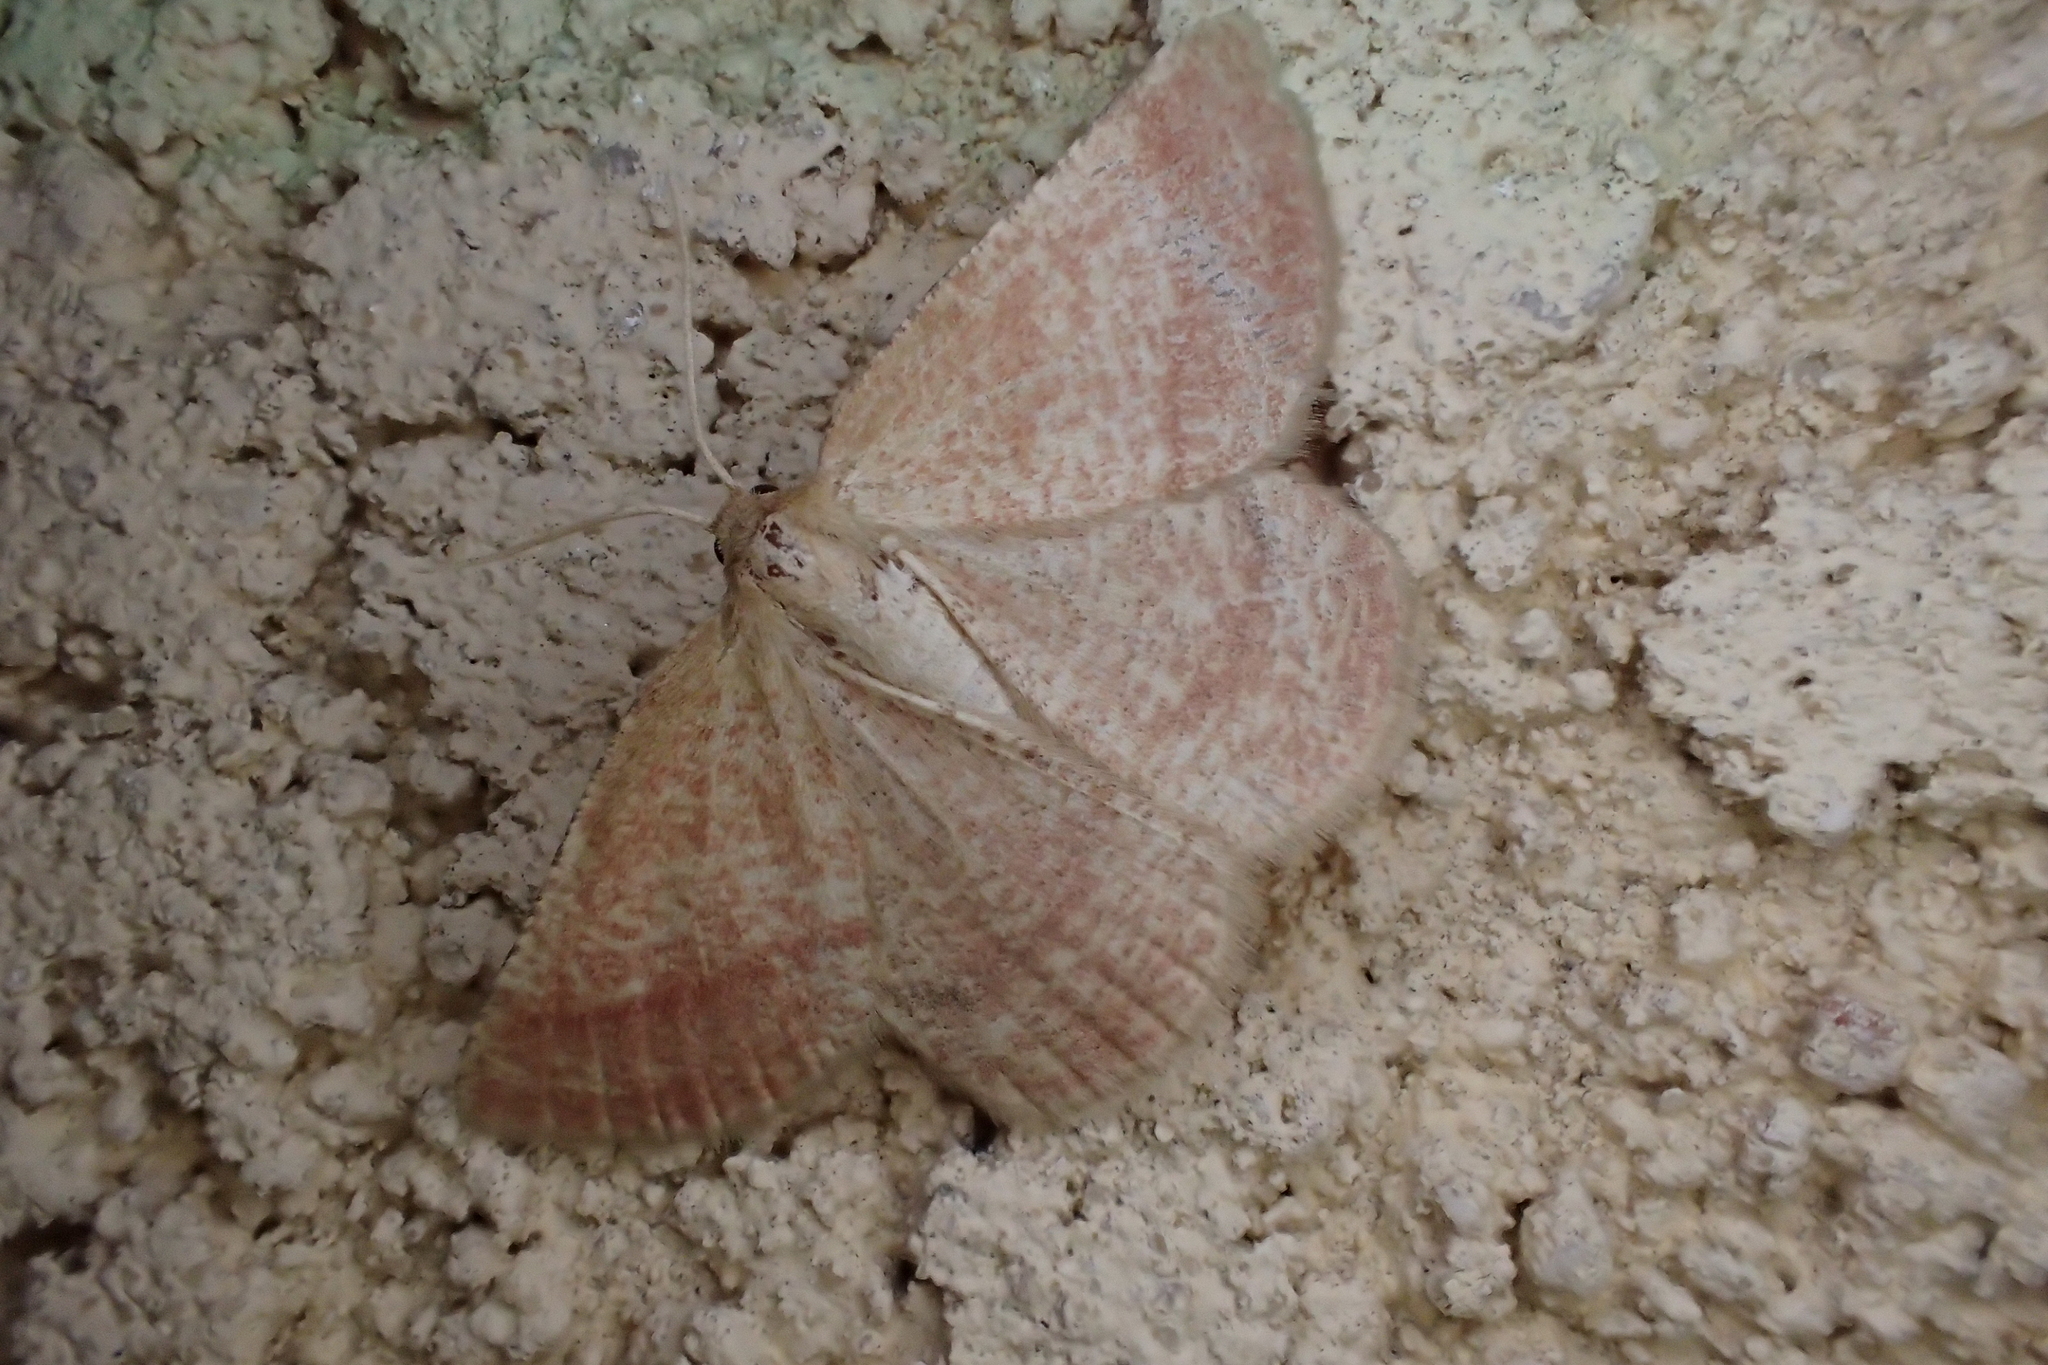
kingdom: Animalia
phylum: Arthropoda
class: Insecta
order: Lepidoptera
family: Geometridae
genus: Aplasta
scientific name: Aplasta ononaria
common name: Rest harrow
